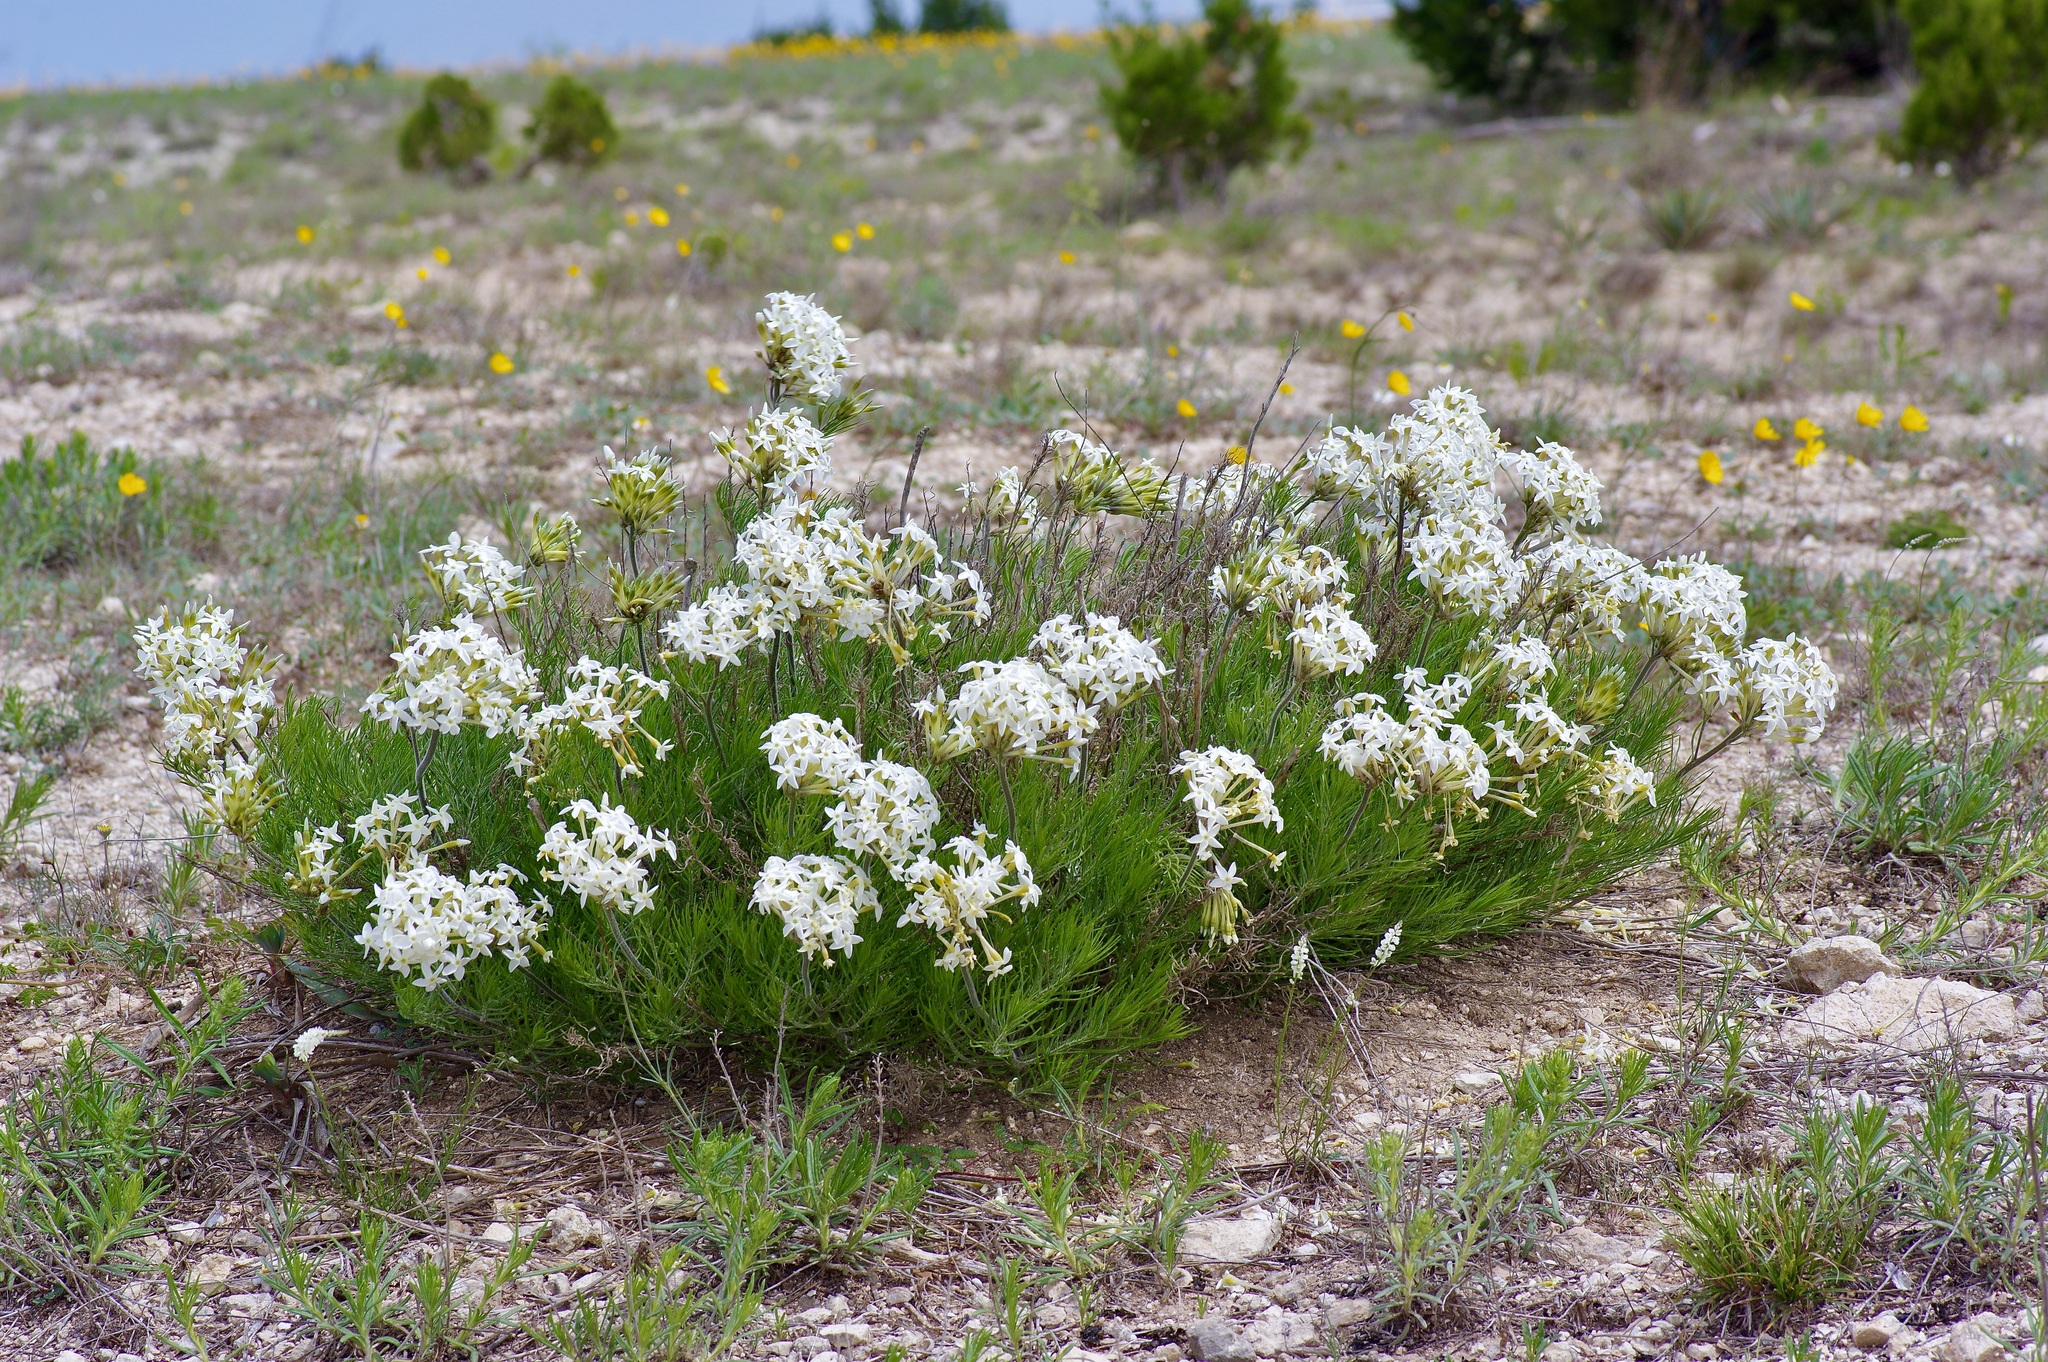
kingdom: Plantae
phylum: Tracheophyta
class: Magnoliopsida
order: Gentianales
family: Apocynaceae
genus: Amsonia
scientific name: Amsonia longiflora
